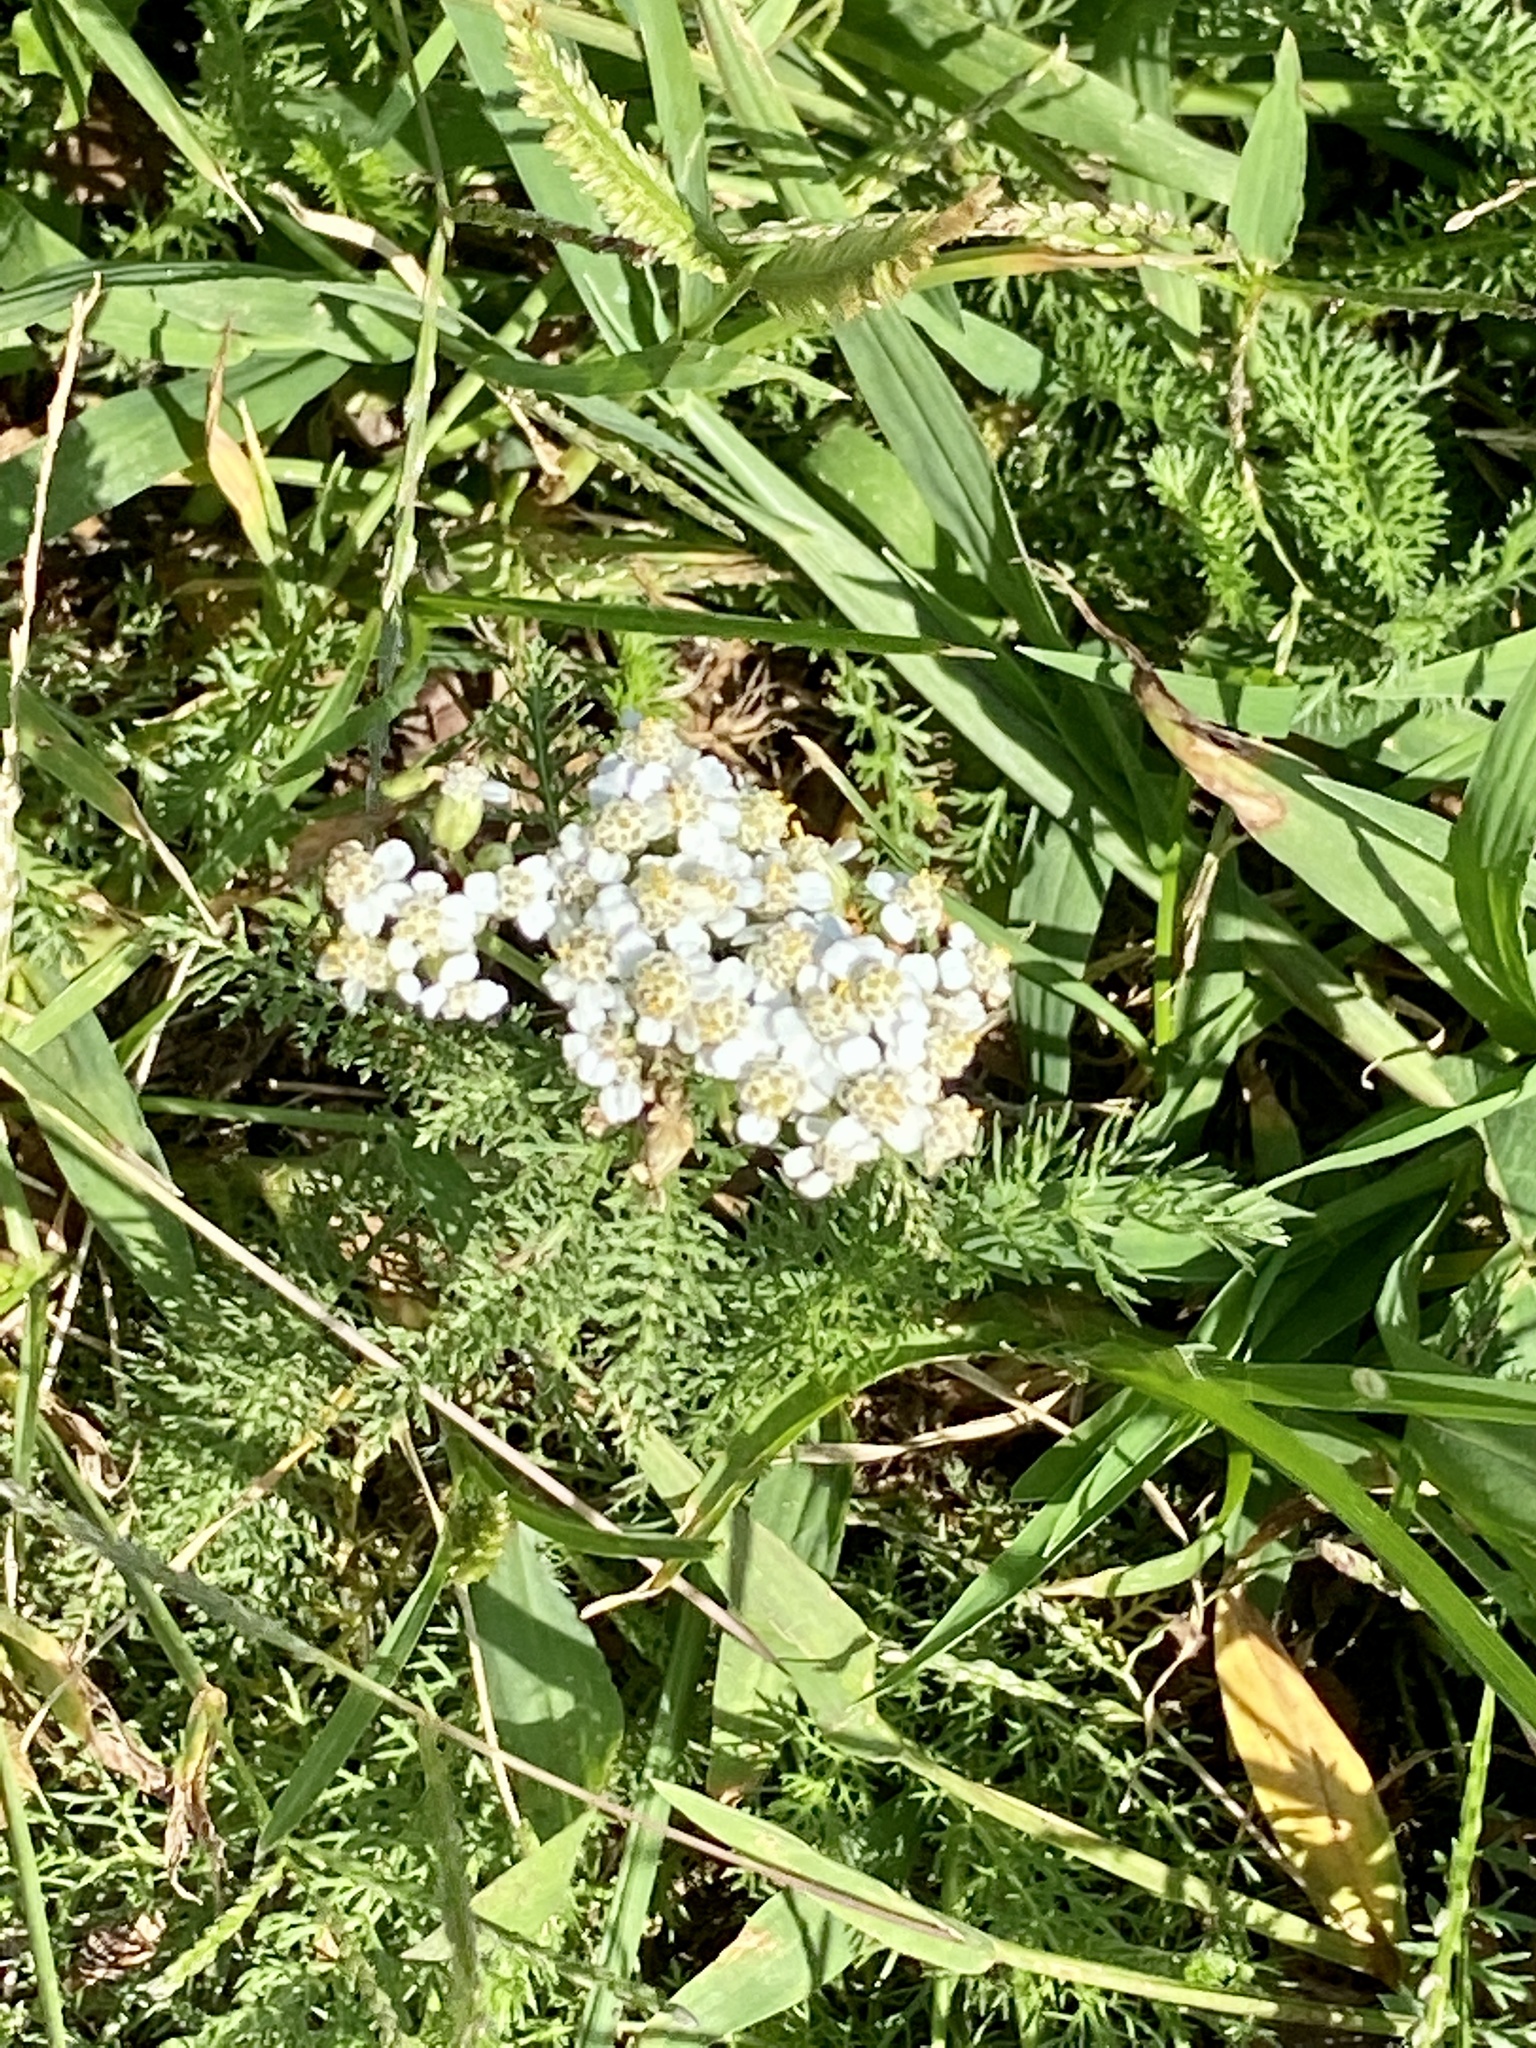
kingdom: Plantae
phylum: Tracheophyta
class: Magnoliopsida
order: Asterales
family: Asteraceae
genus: Achillea
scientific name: Achillea millefolium
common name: Yarrow
